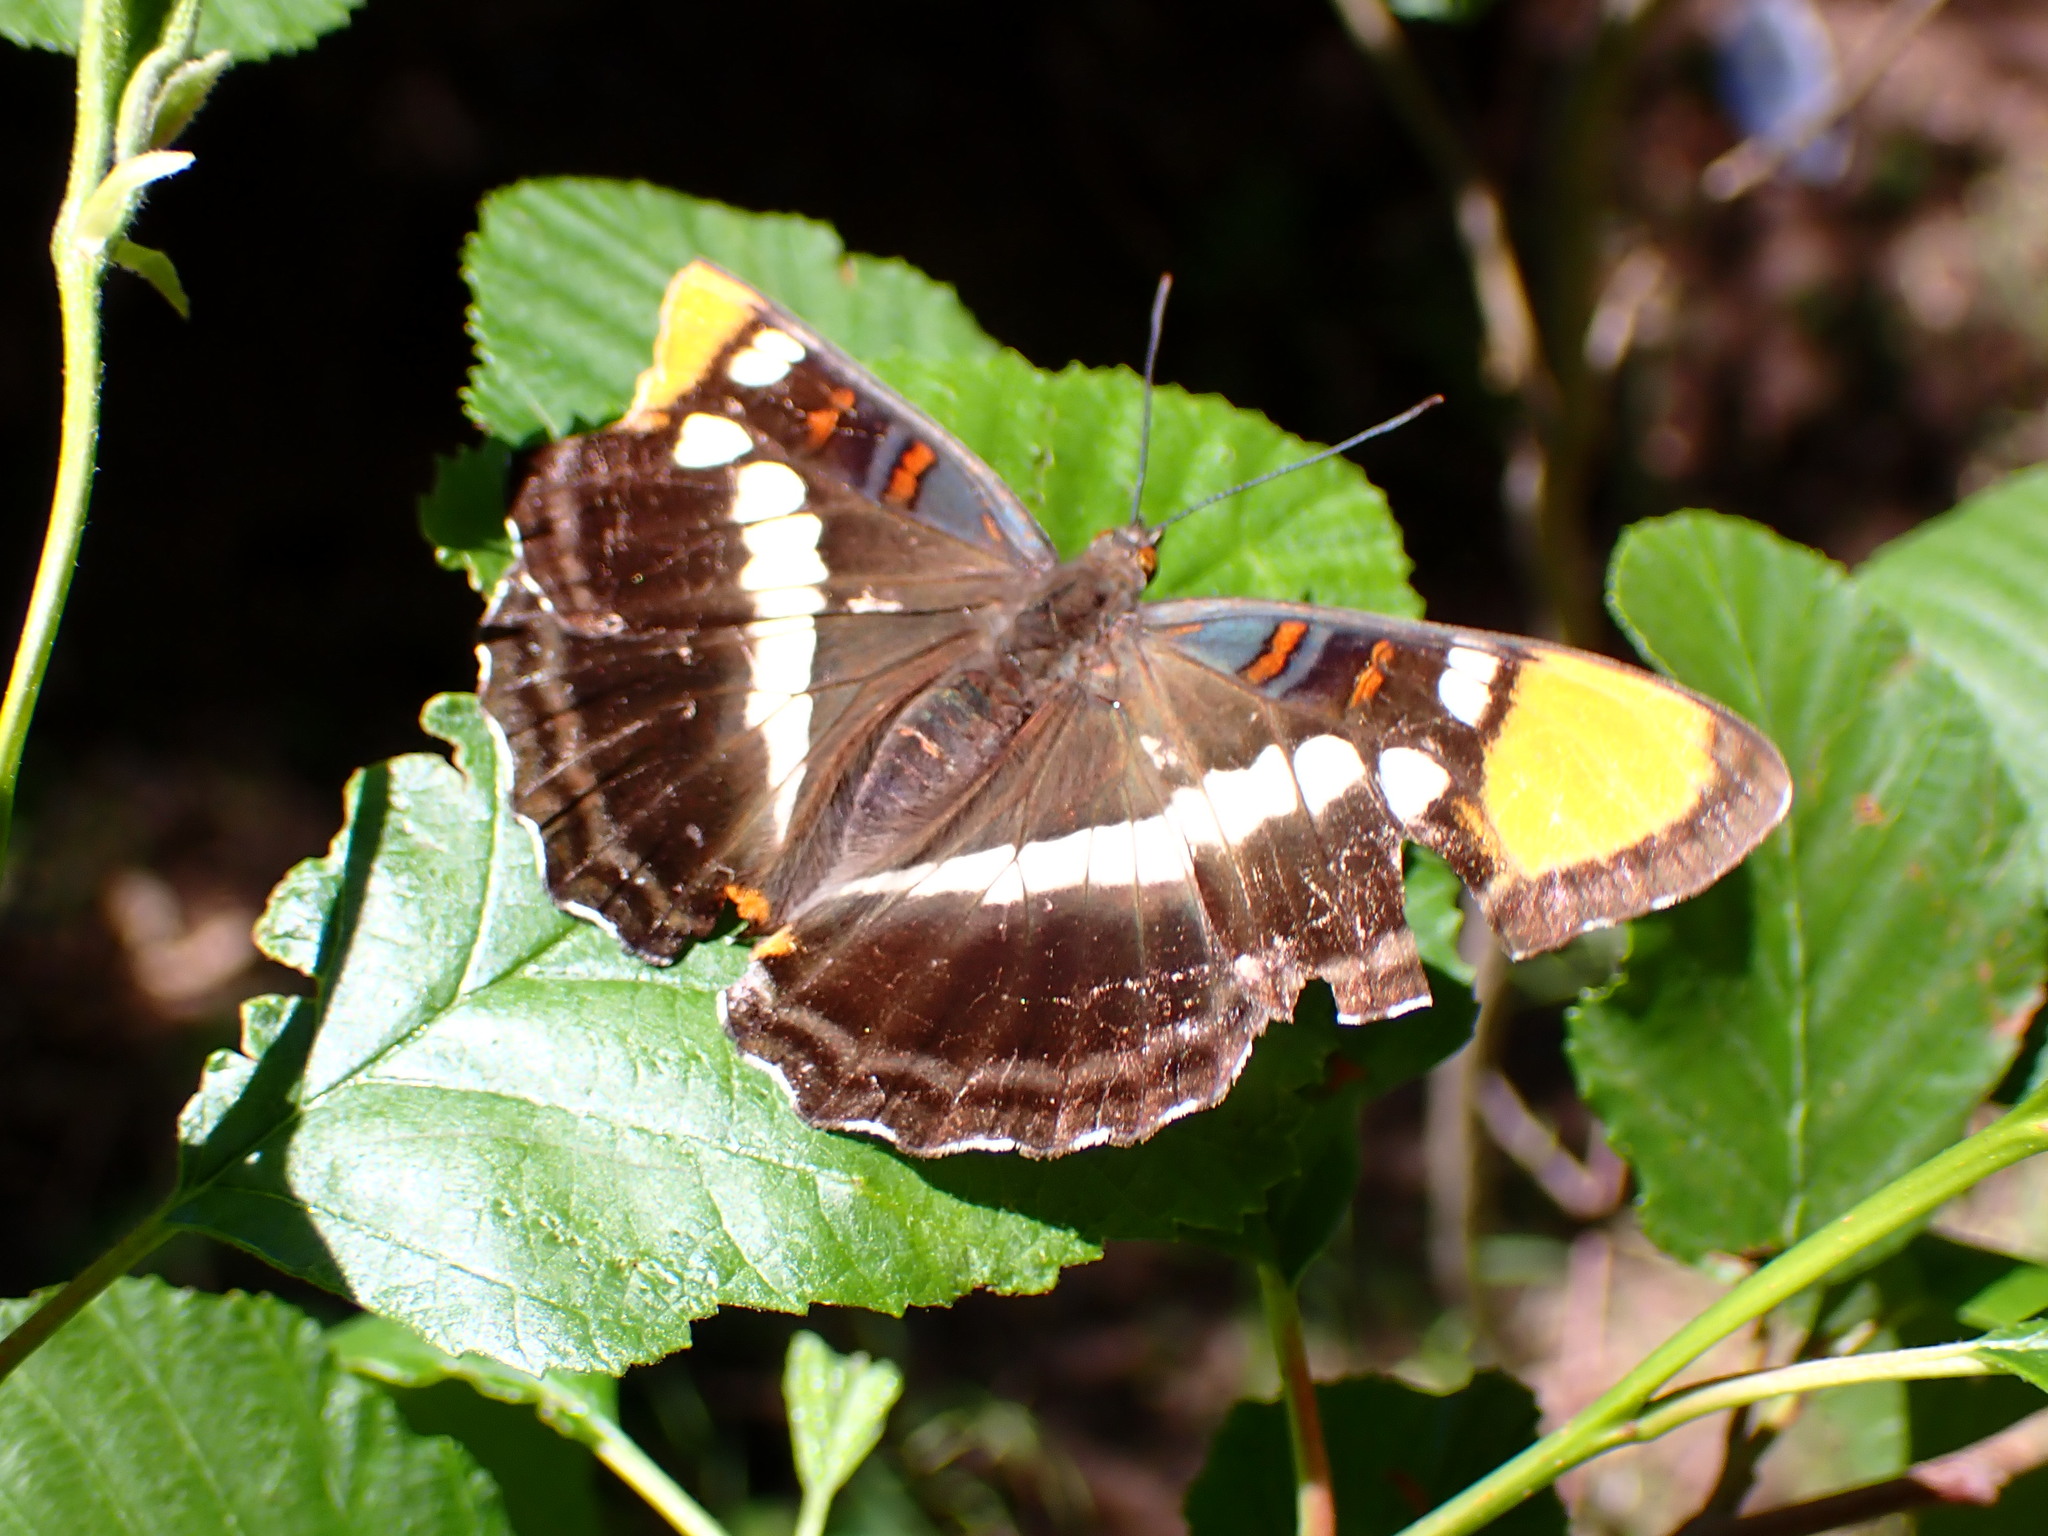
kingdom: Animalia
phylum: Arthropoda
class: Insecta
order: Lepidoptera
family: Nymphalidae
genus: Limenitis
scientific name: Limenitis bredowii
